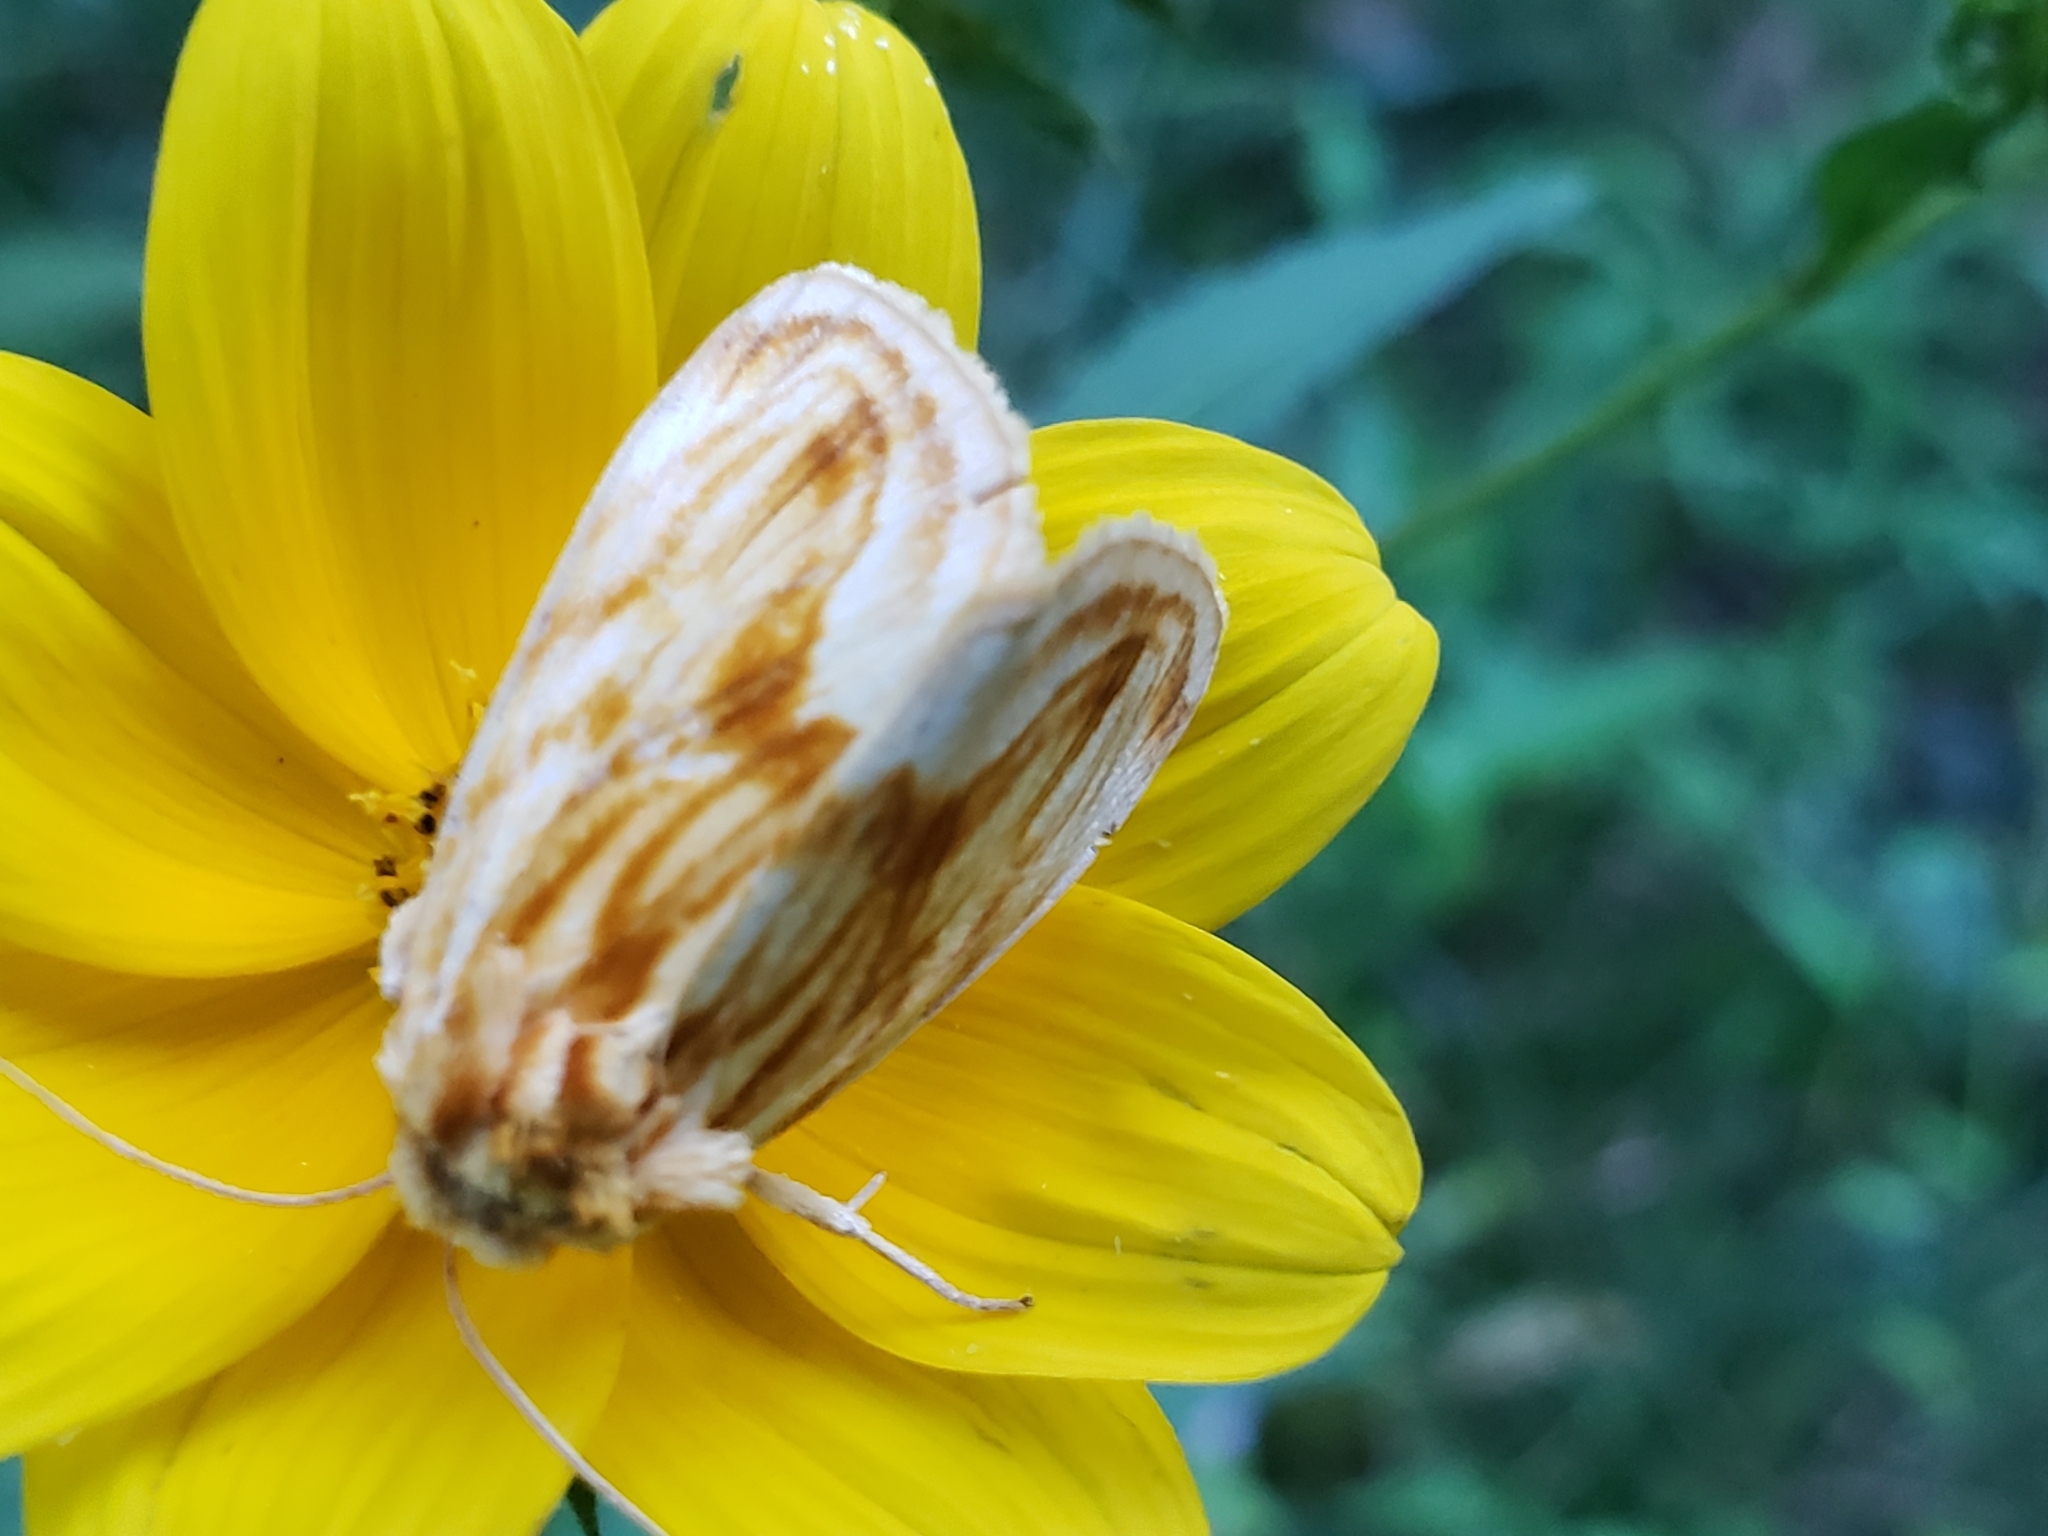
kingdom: Animalia
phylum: Arthropoda
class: Insecta
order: Lepidoptera
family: Noctuidae
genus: Cirrhophanus
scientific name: Cirrhophanus triangulifer
